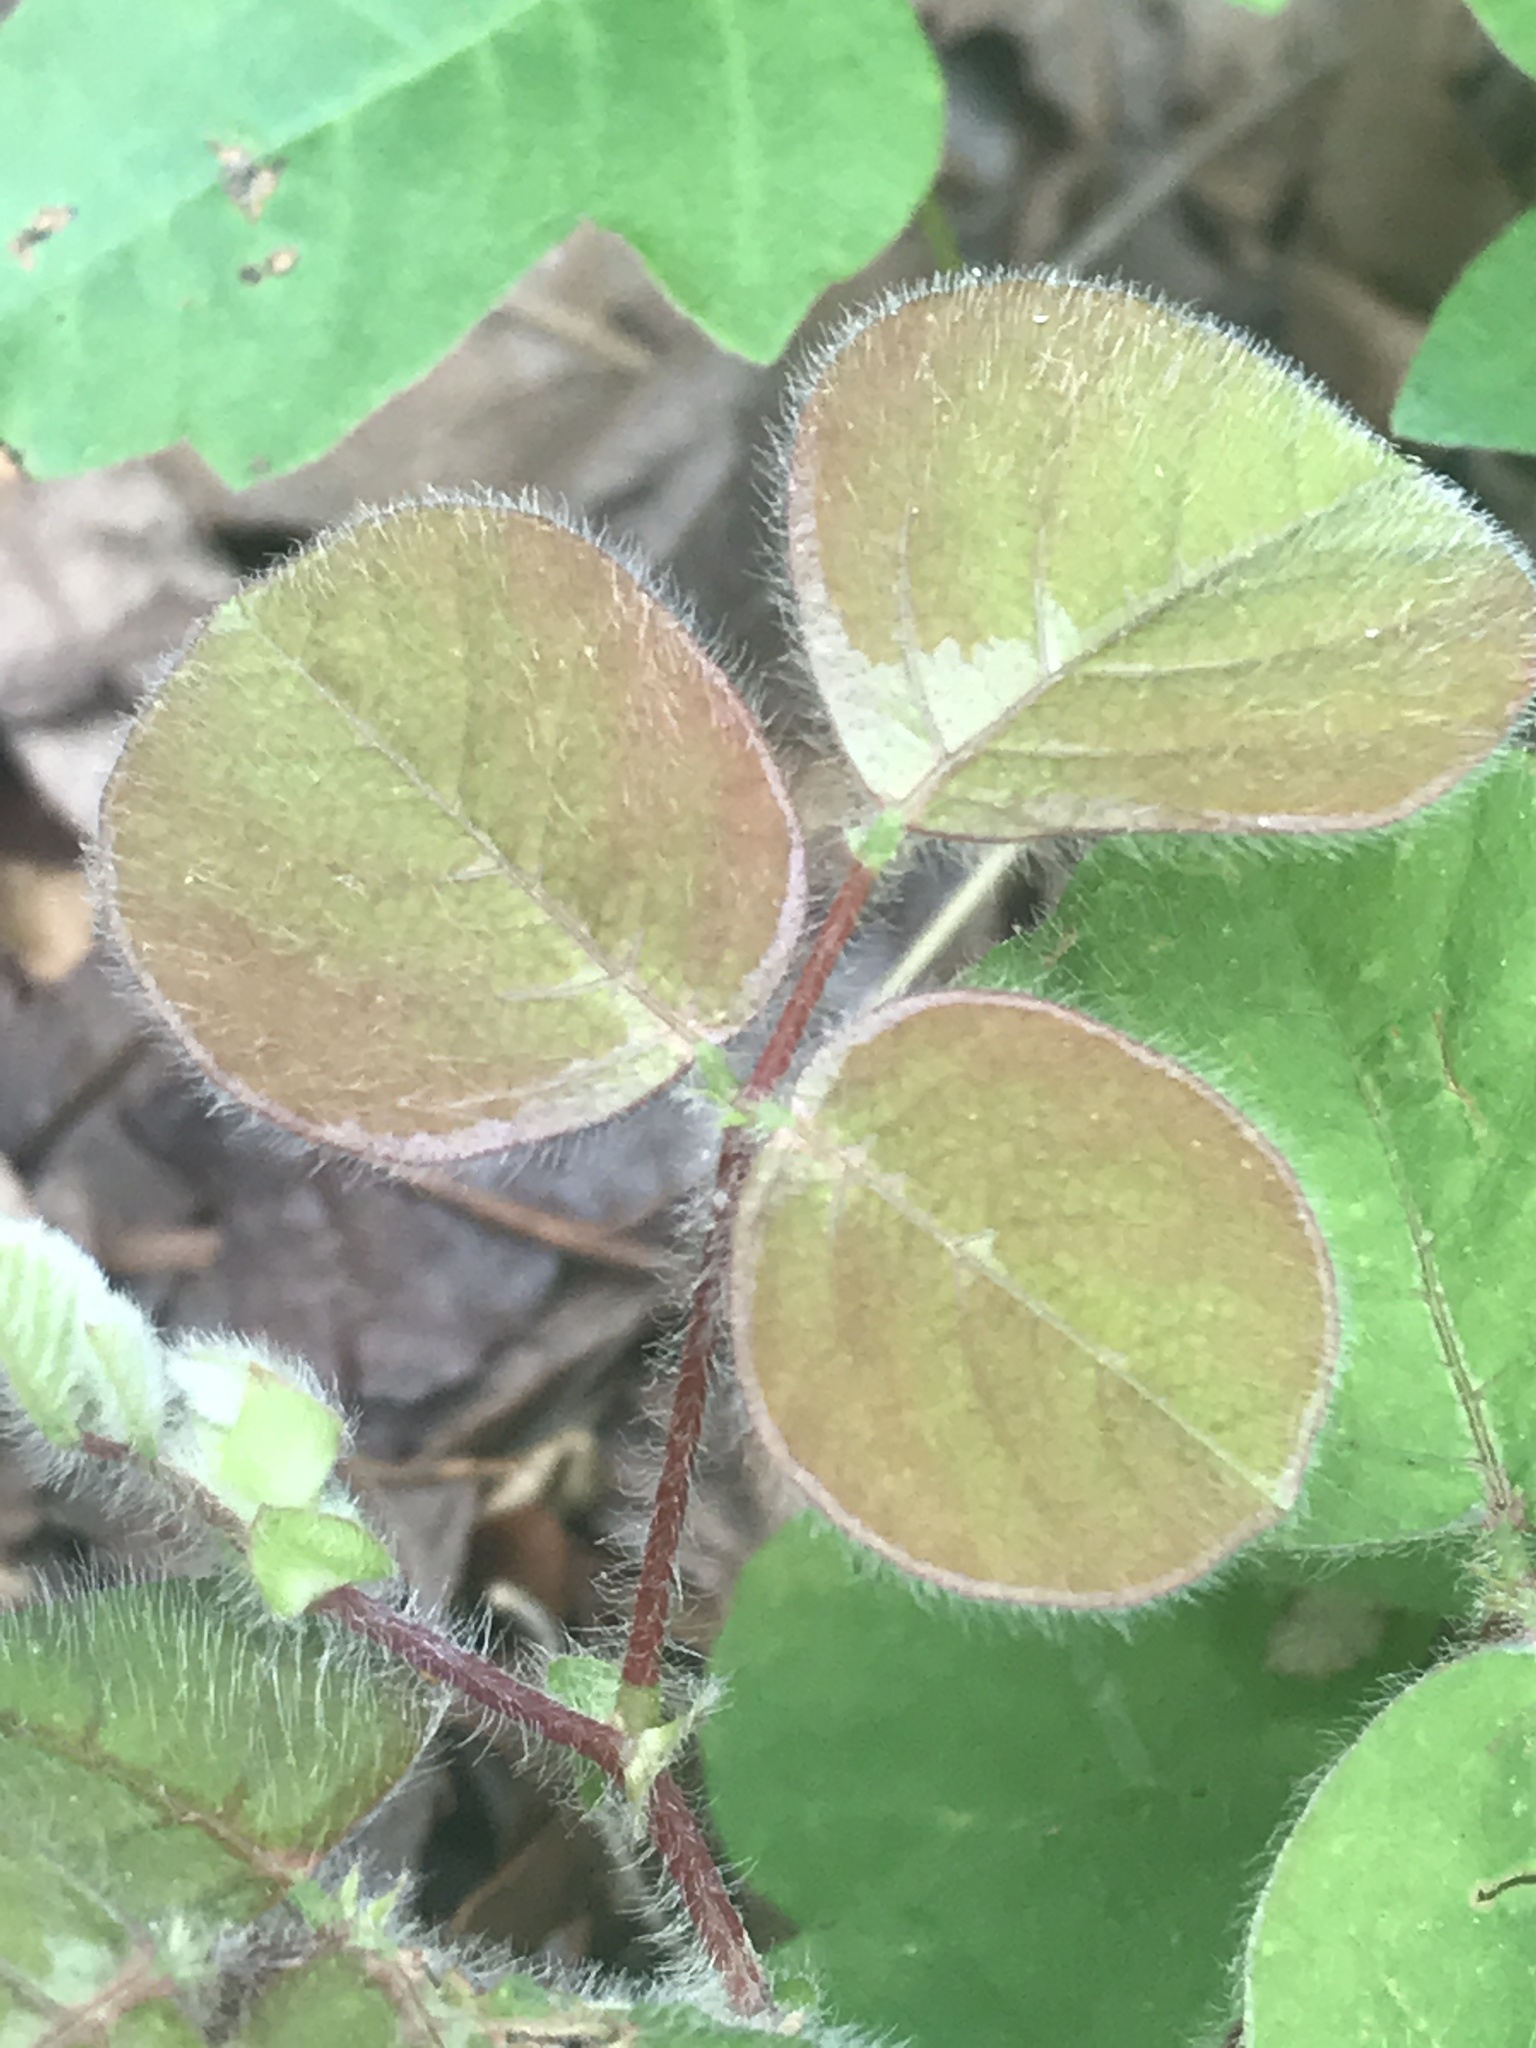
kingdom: Plantae
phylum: Tracheophyta
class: Magnoliopsida
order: Fabales
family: Fabaceae
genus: Desmodium
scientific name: Desmodium rotundifolium
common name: Dollarleaf
